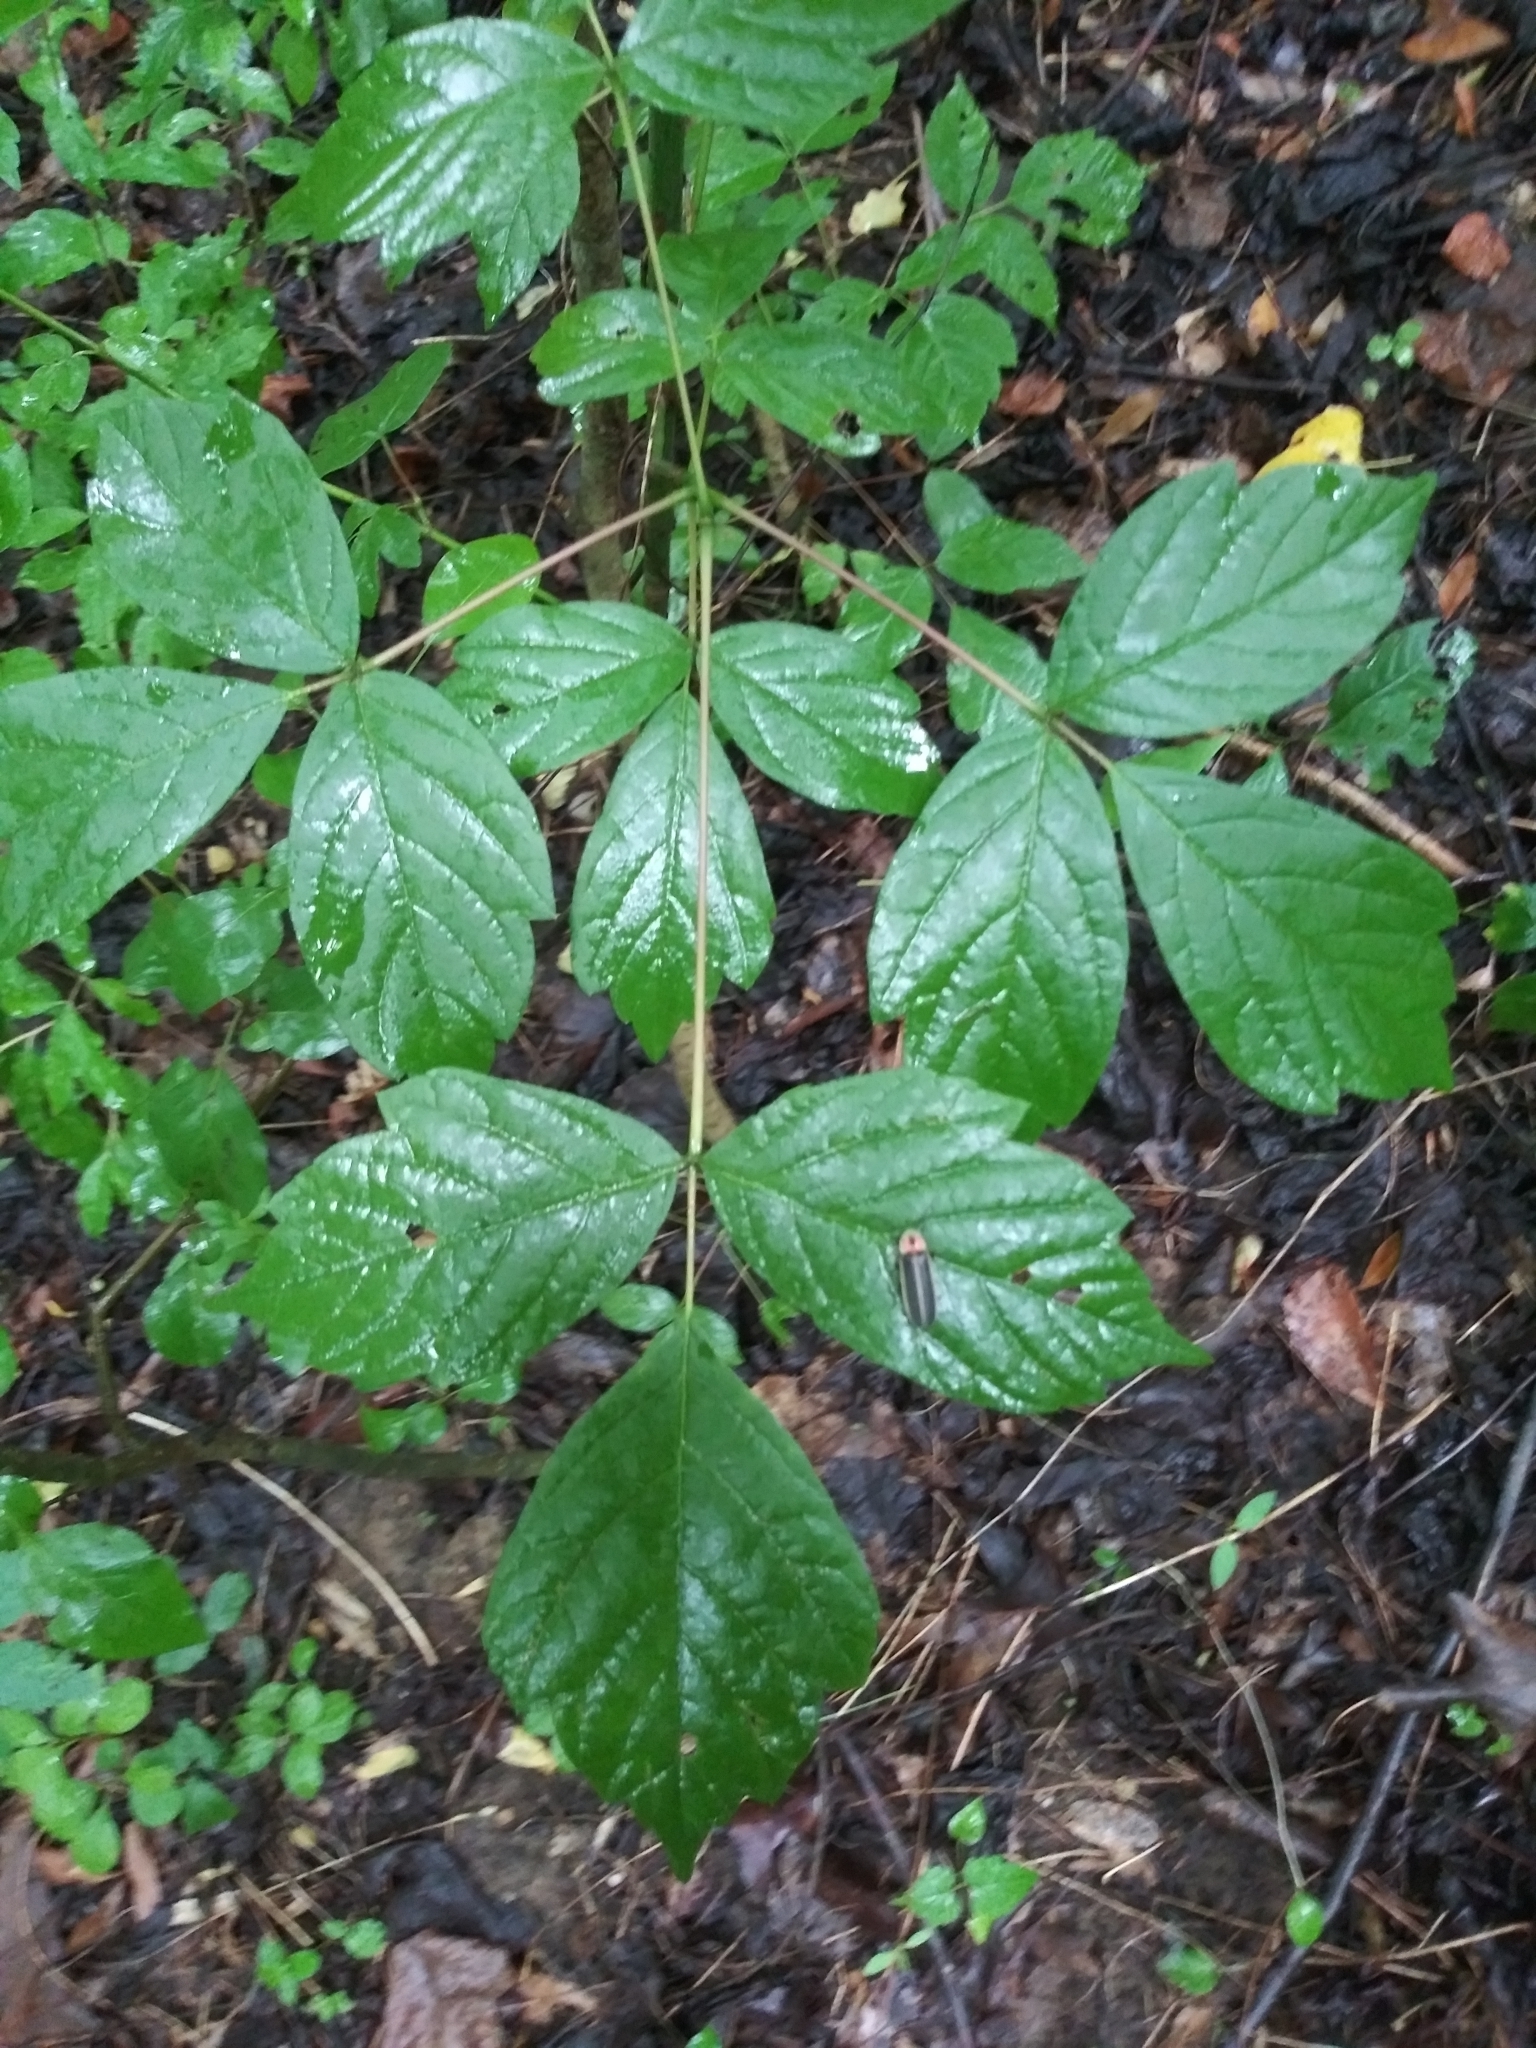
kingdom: Plantae
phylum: Tracheophyta
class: Magnoliopsida
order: Sapindales
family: Sapindaceae
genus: Acer
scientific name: Acer negundo
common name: Ashleaf maple
